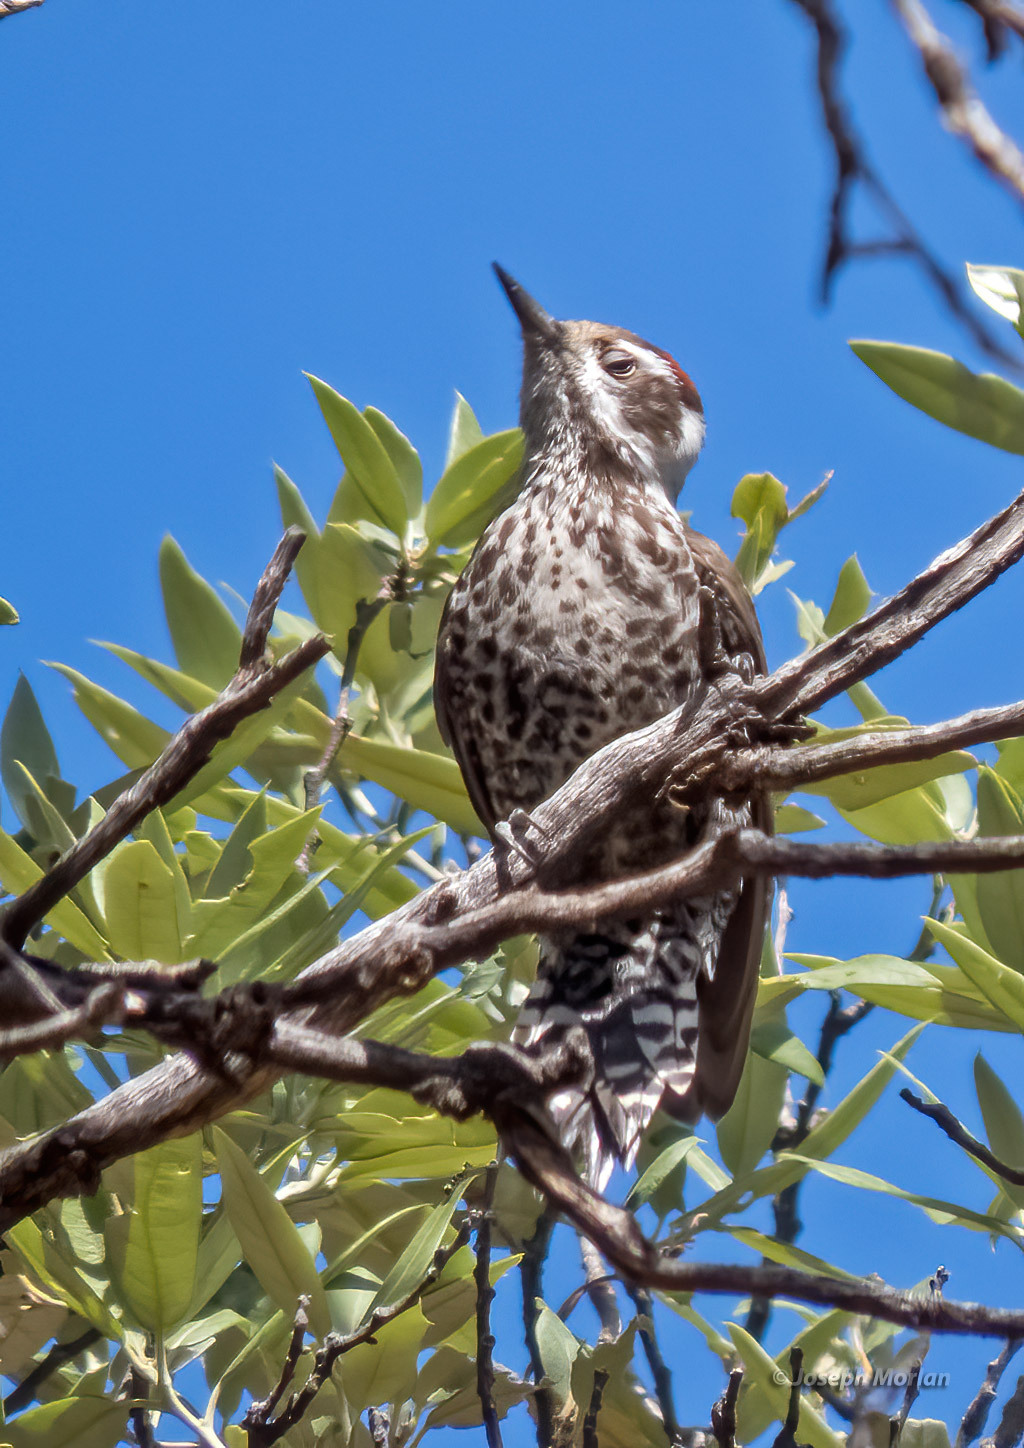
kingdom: Animalia
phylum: Chordata
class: Aves
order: Piciformes
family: Picidae
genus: Leuconotopicus
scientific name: Leuconotopicus arizonae
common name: Arizona woodpecker
